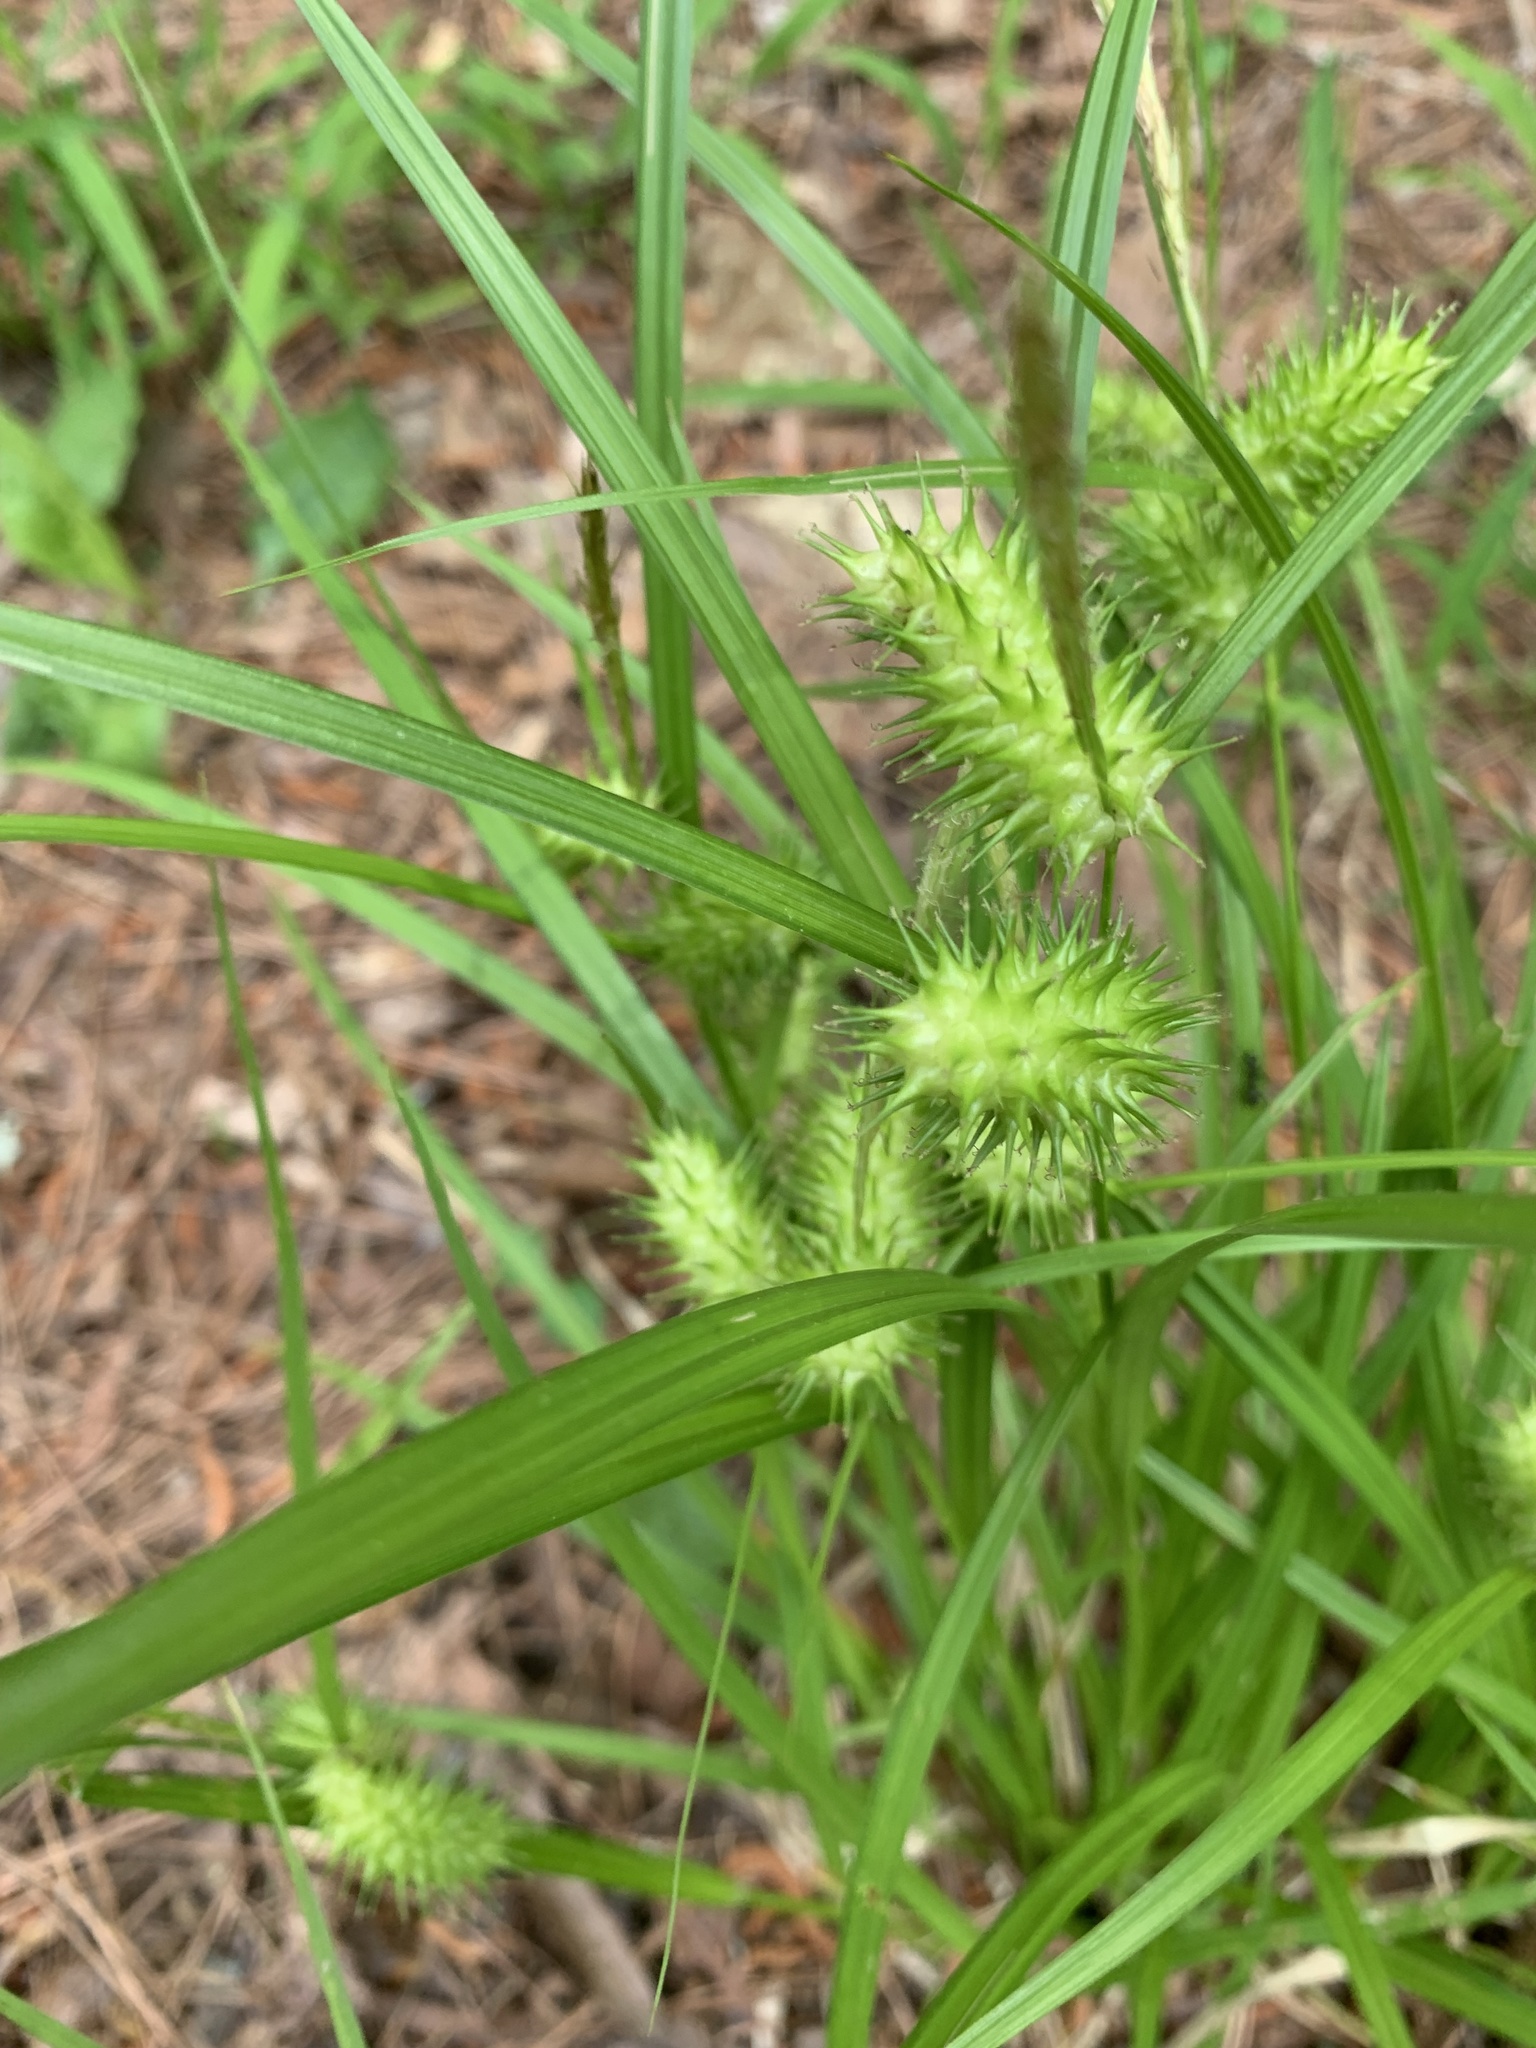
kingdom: Plantae
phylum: Tracheophyta
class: Liliopsida
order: Poales
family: Cyperaceae
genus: Carex
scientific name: Carex lurida
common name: Sallow sedge
